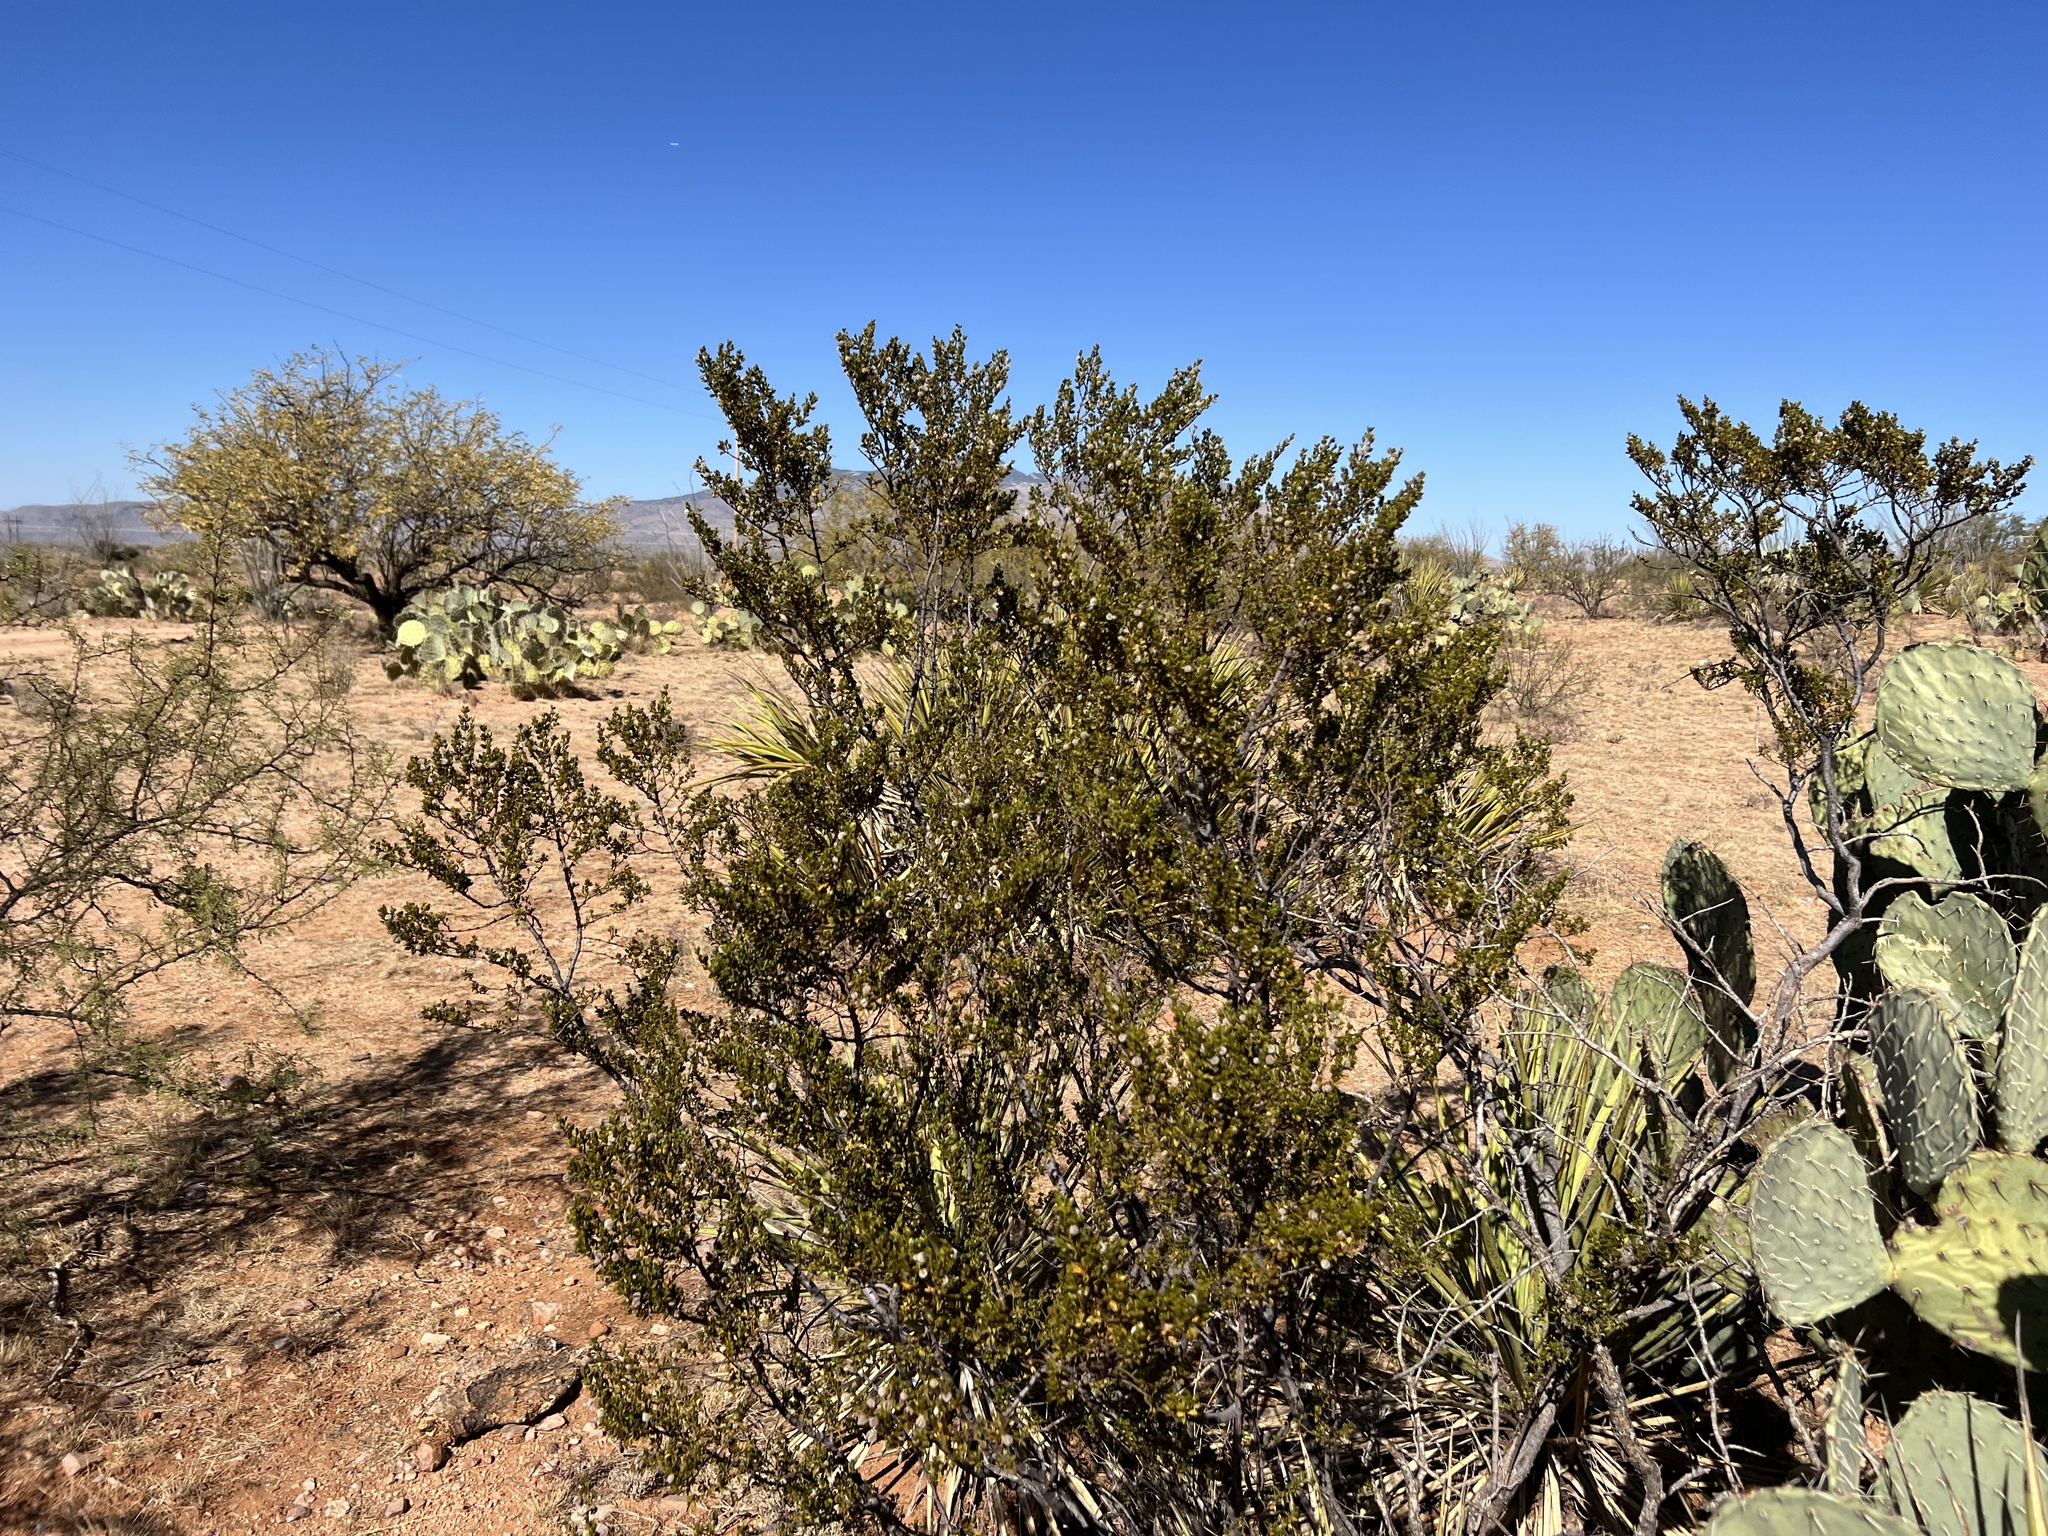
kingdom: Plantae
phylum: Tracheophyta
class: Magnoliopsida
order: Zygophyllales
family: Zygophyllaceae
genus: Larrea
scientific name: Larrea tridentata
